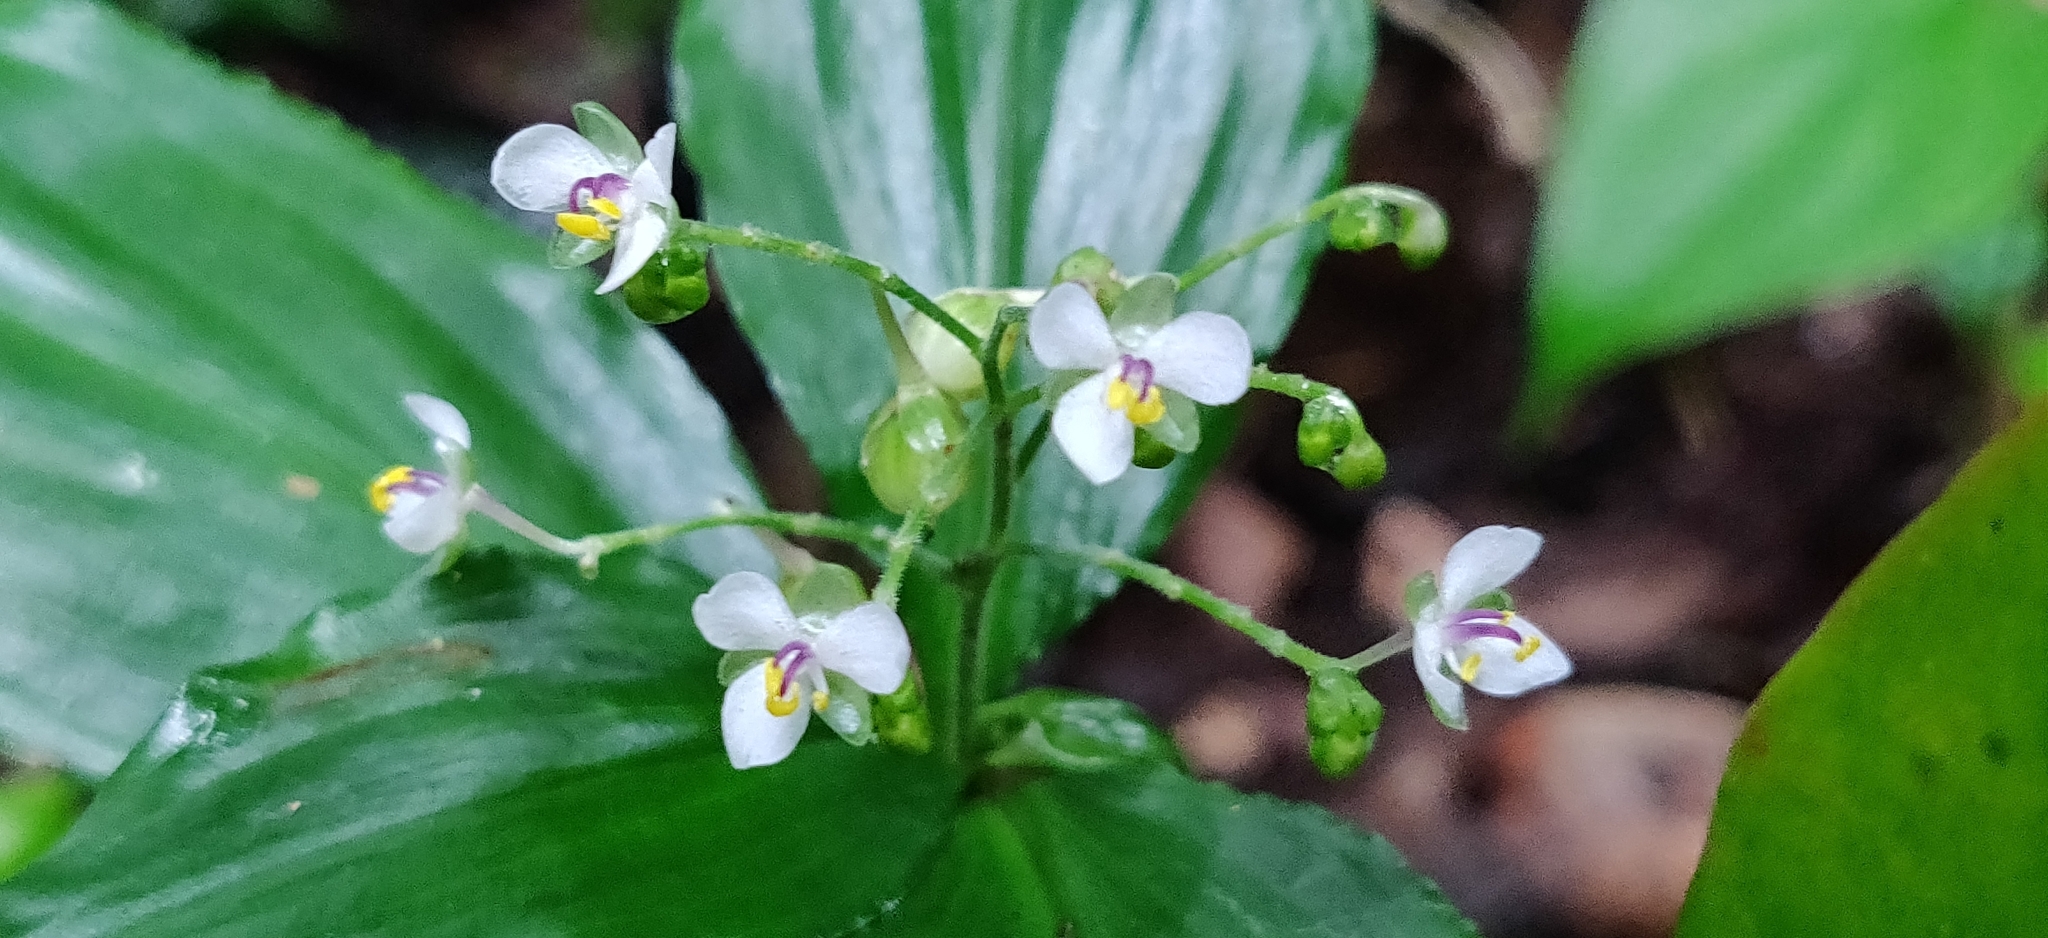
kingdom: Plantae
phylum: Tracheophyta
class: Liliopsida
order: Commelinales
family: Commelinaceae
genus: Dictyospermum
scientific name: Dictyospermum ovalifolium
